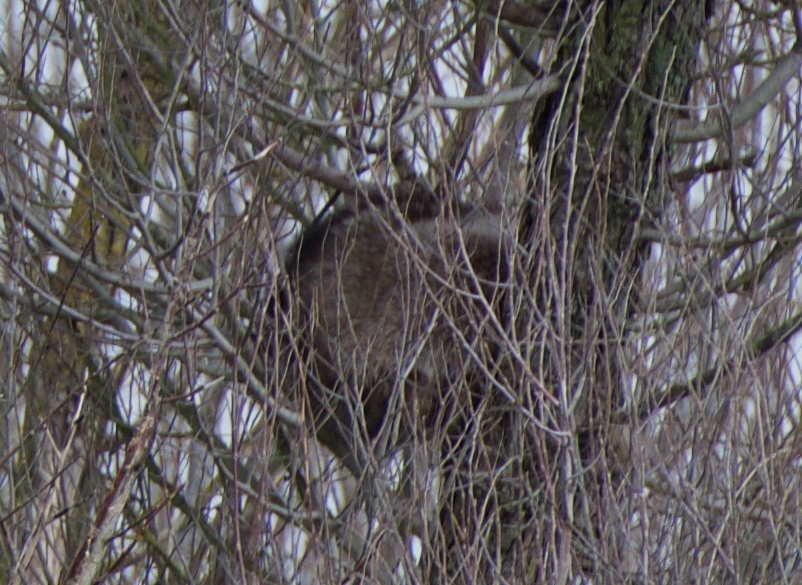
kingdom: Animalia
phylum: Chordata
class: Mammalia
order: Carnivora
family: Procyonidae
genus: Procyon
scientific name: Procyon lotor
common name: Raccoon
